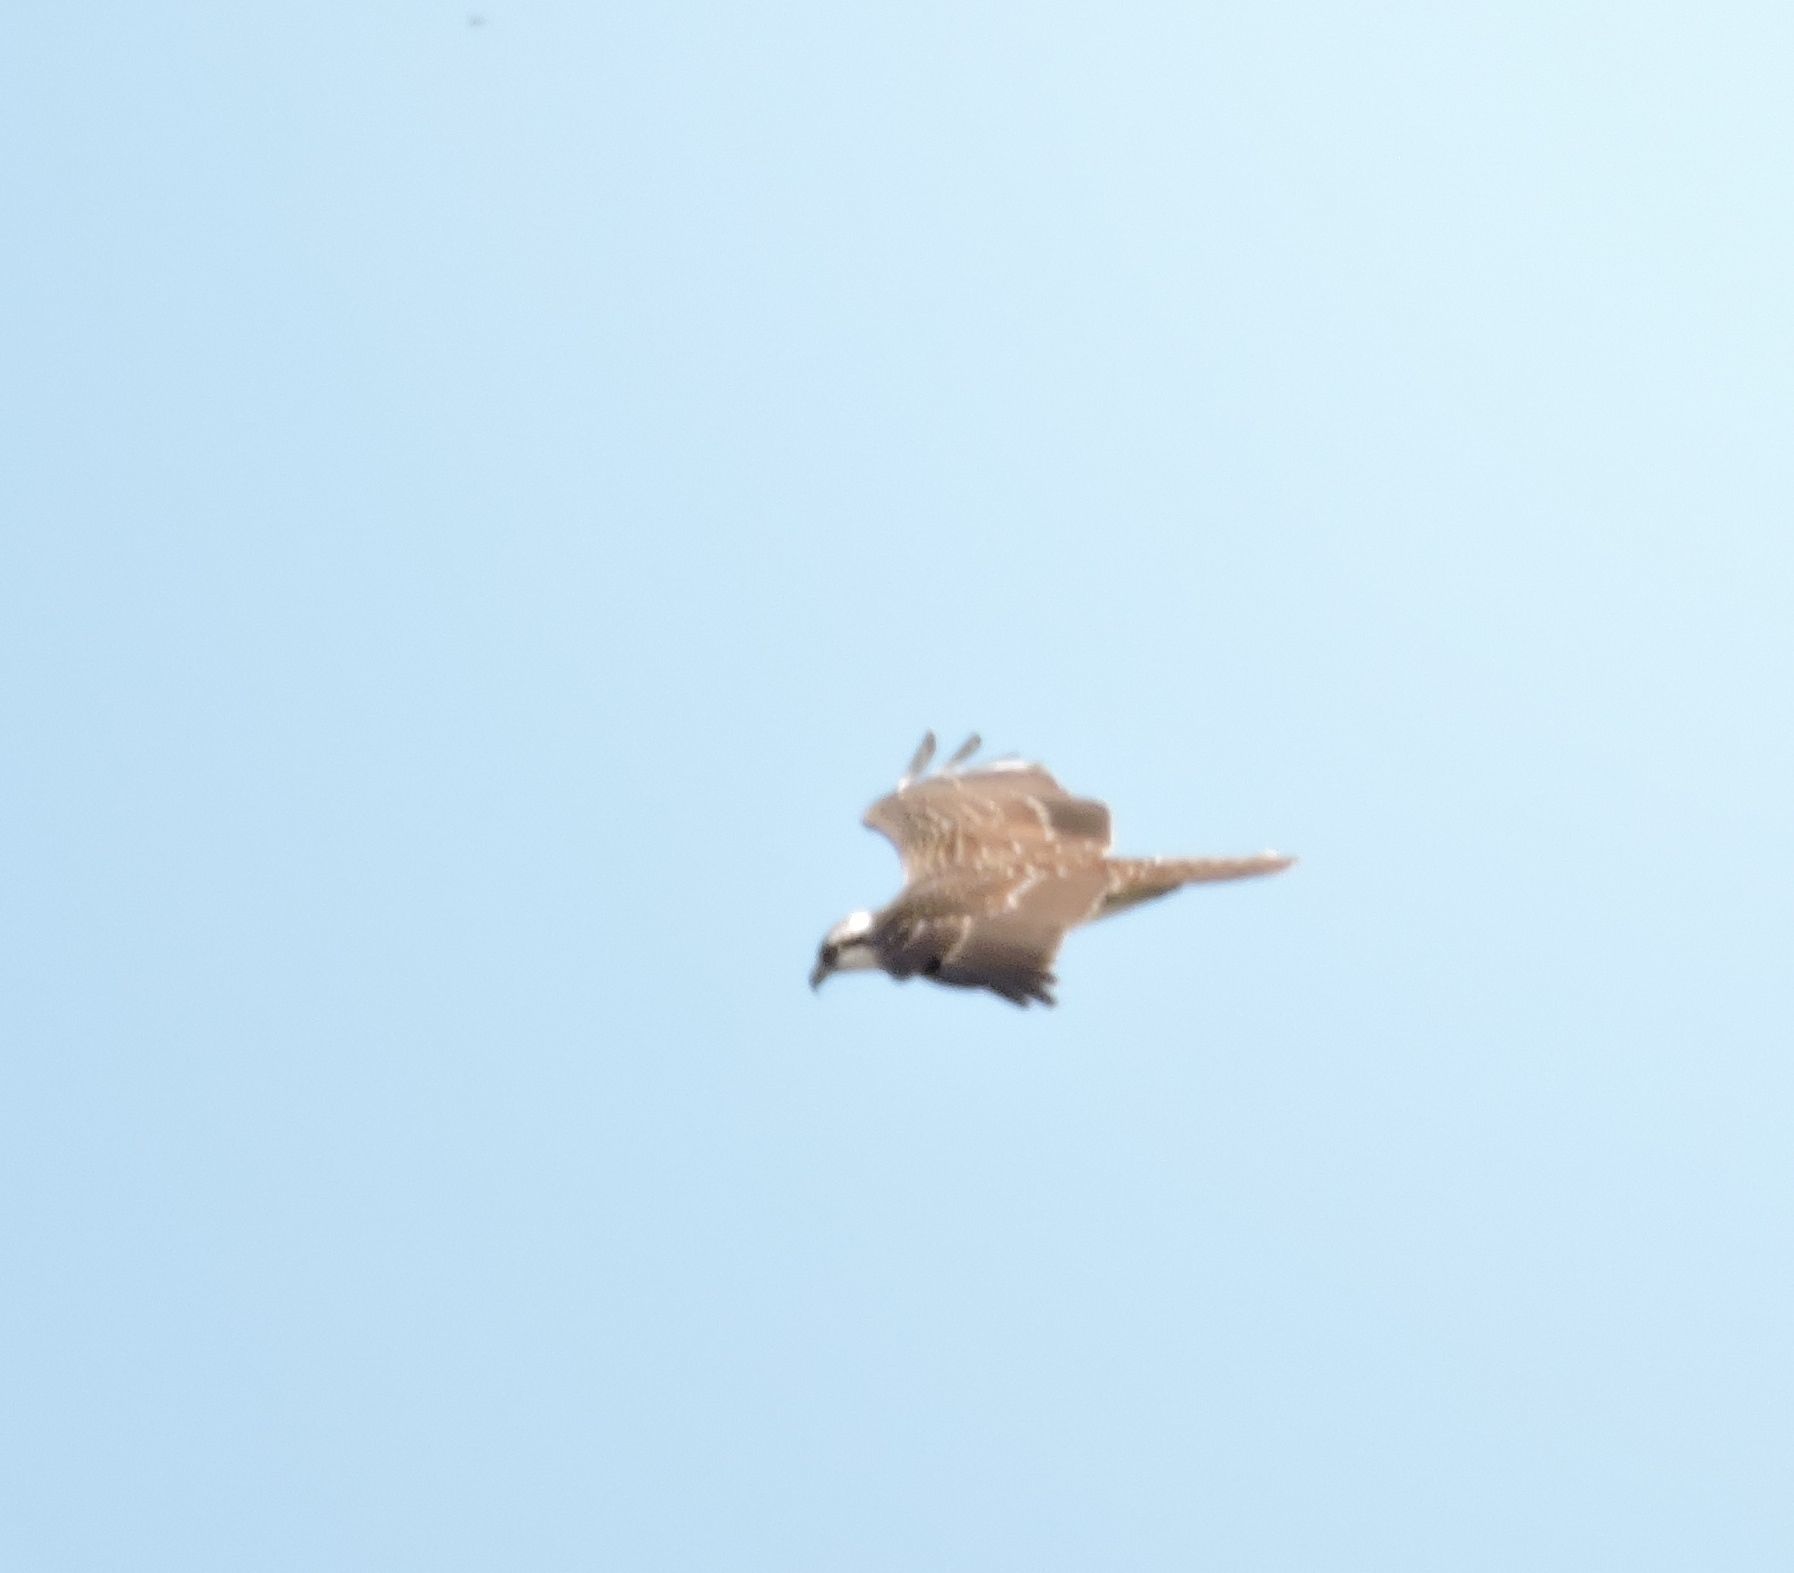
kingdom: Animalia
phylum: Chordata
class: Aves
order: Accipitriformes
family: Pandionidae
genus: Pandion
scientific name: Pandion haliaetus
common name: Osprey
